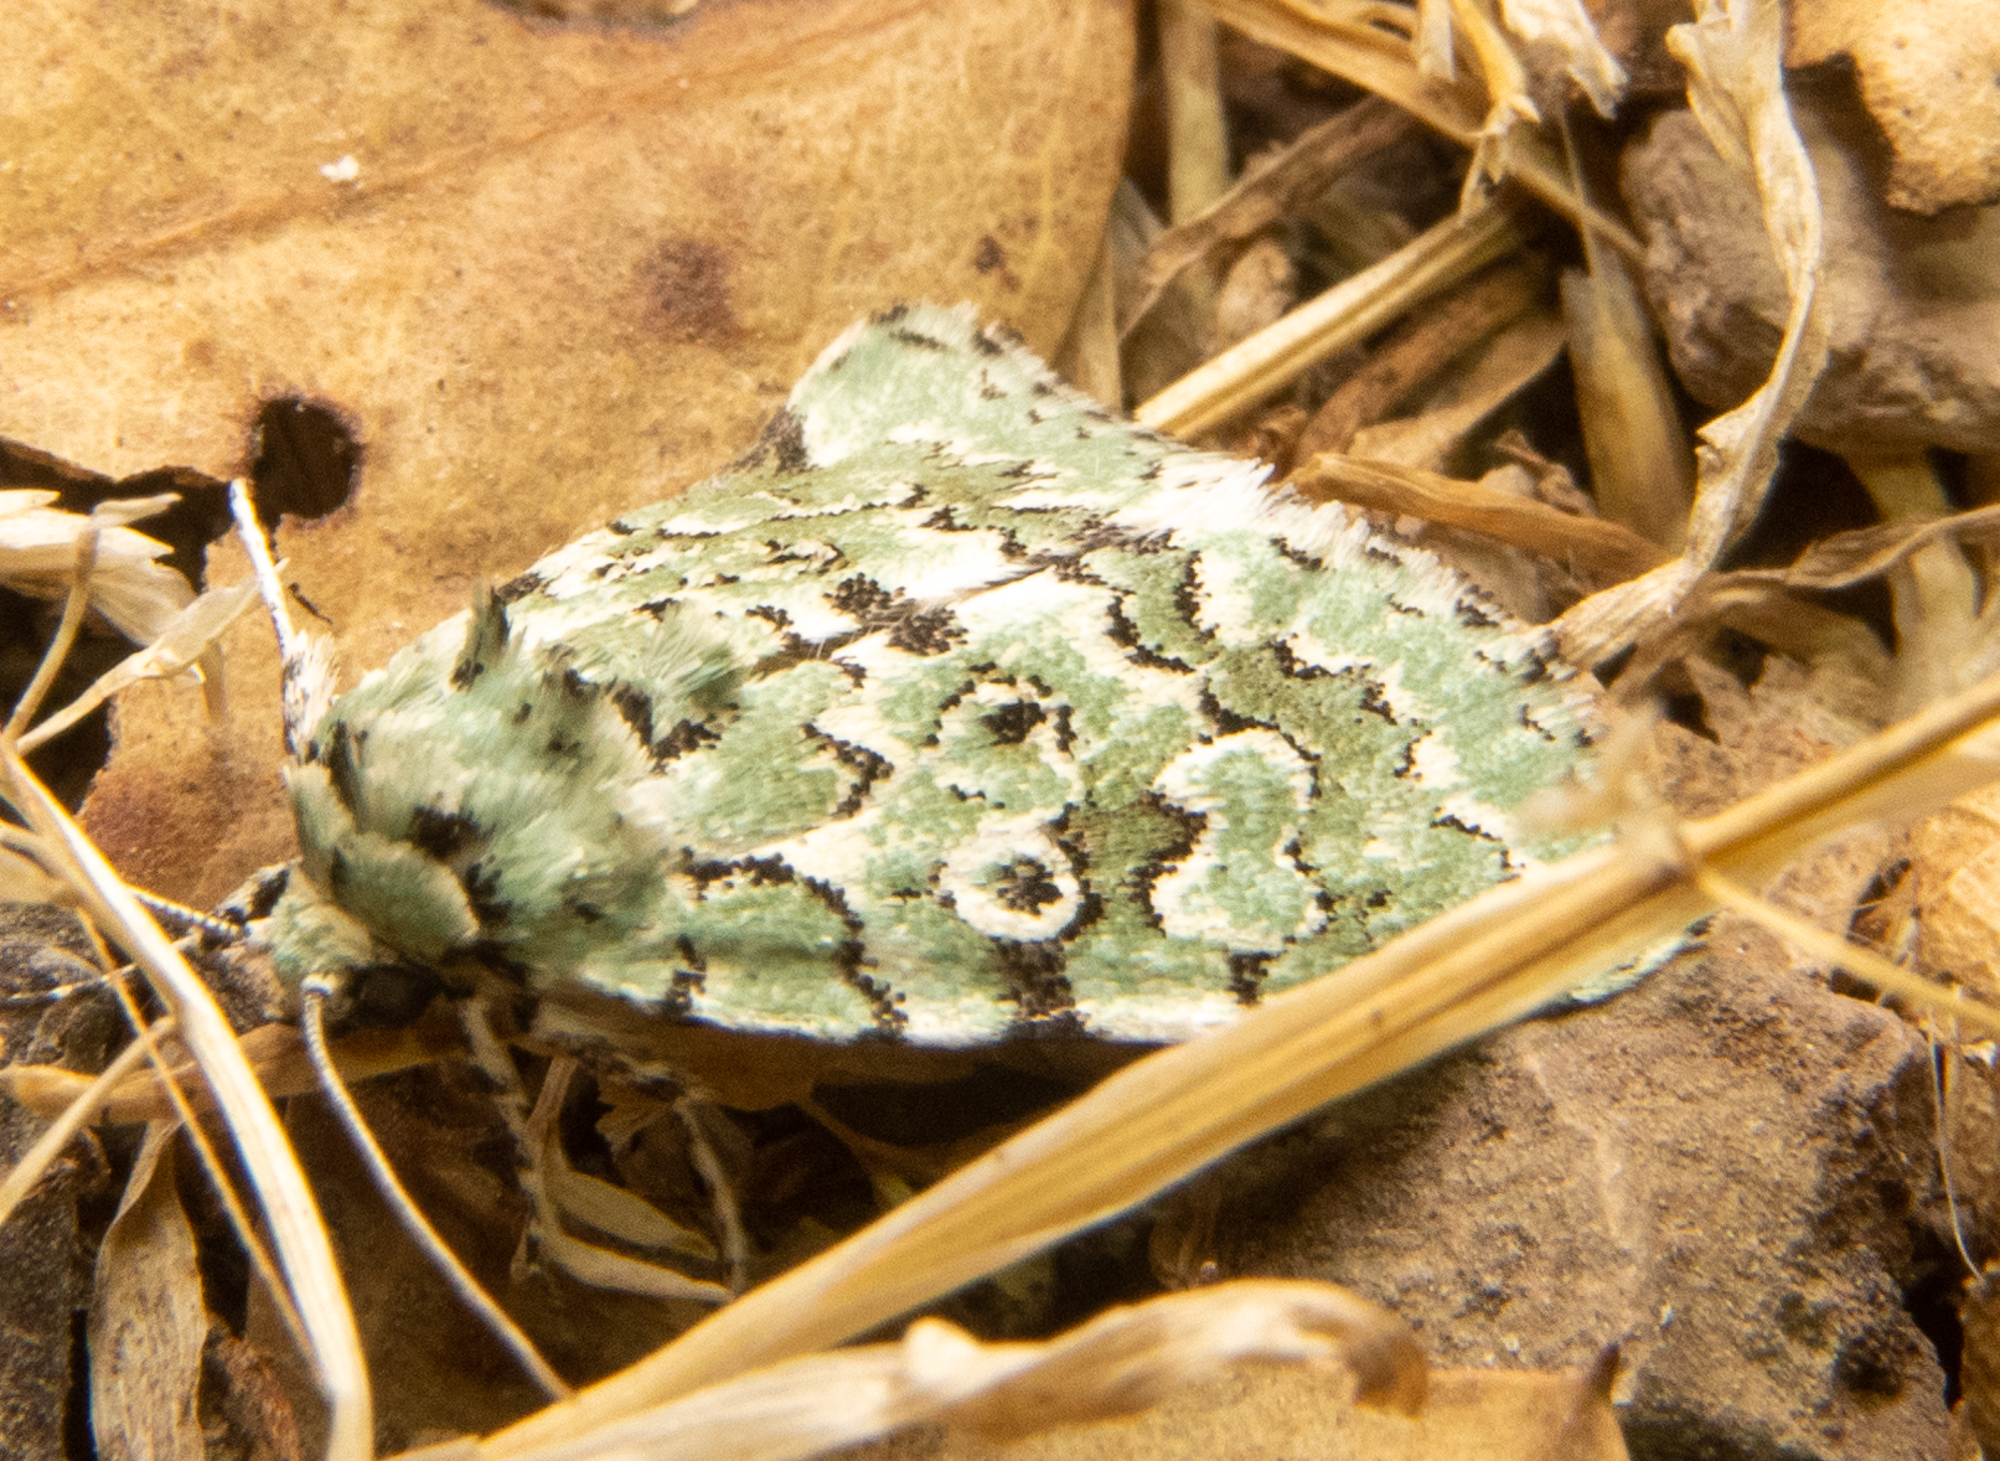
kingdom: Animalia
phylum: Arthropoda
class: Insecta
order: Lepidoptera
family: Noctuidae
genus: Bryolymnia
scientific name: Bryolymnia viridata
